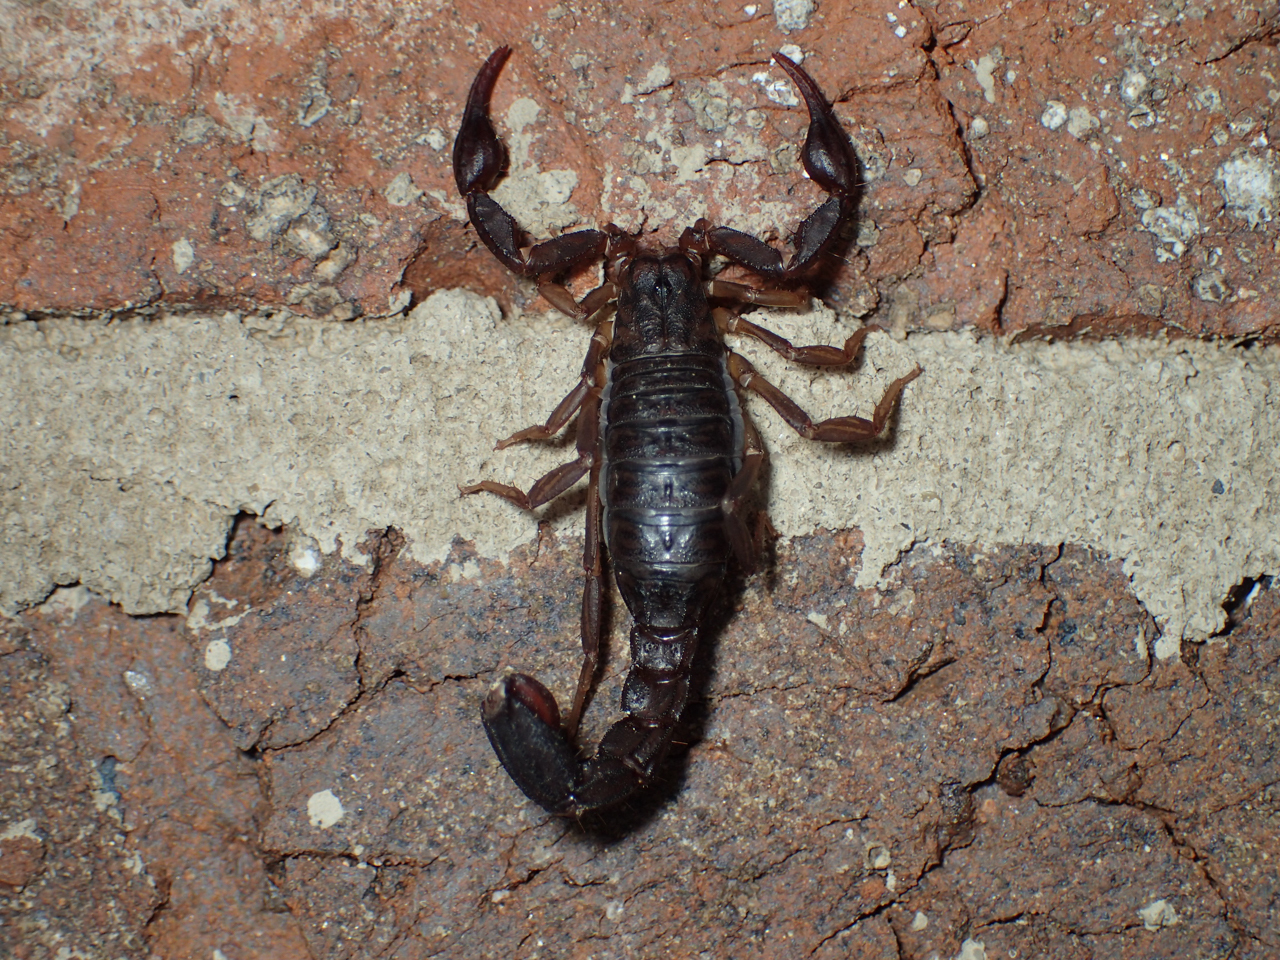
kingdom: Animalia
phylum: Arthropoda
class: Arachnida
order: Scorpiones
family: Vaejovidae
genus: Vaejovis
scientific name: Vaejovis carolinianus
